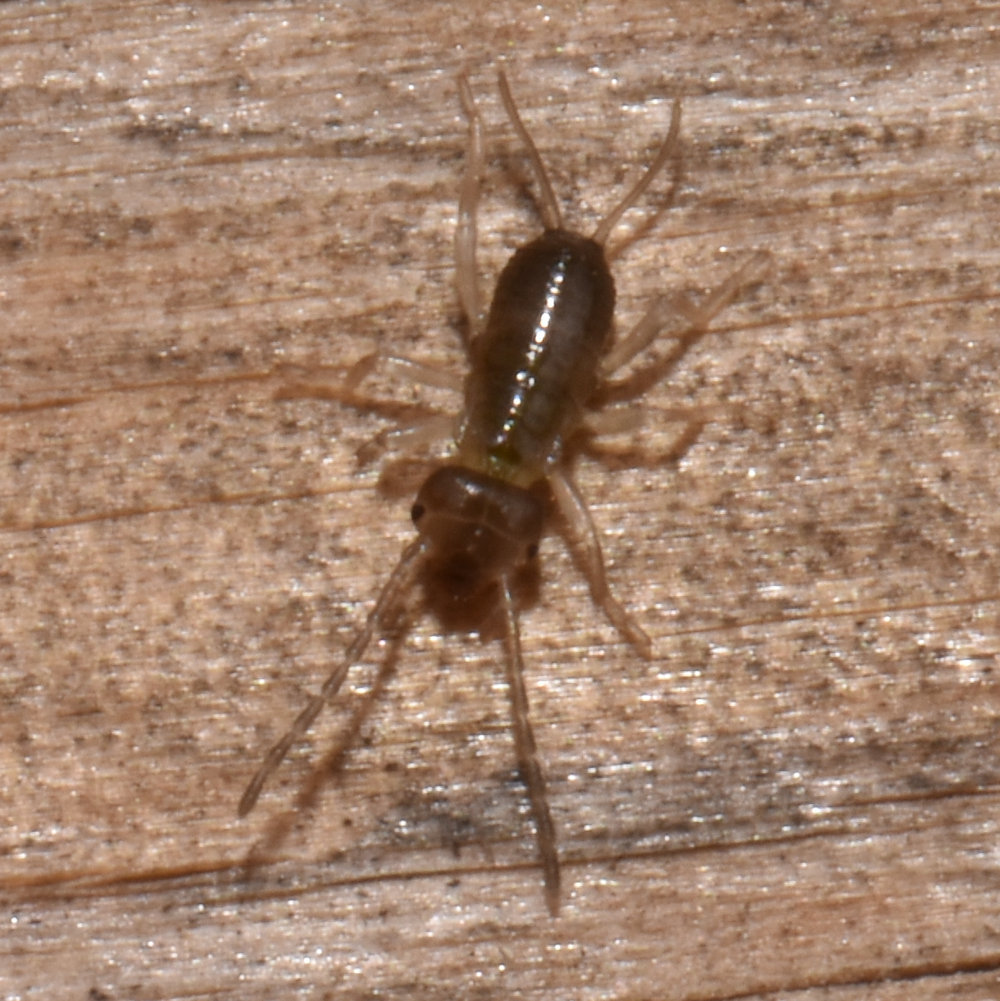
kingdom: Animalia
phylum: Arthropoda
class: Insecta
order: Dermaptera
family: Forficulidae
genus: Forficula
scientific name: Forficula
